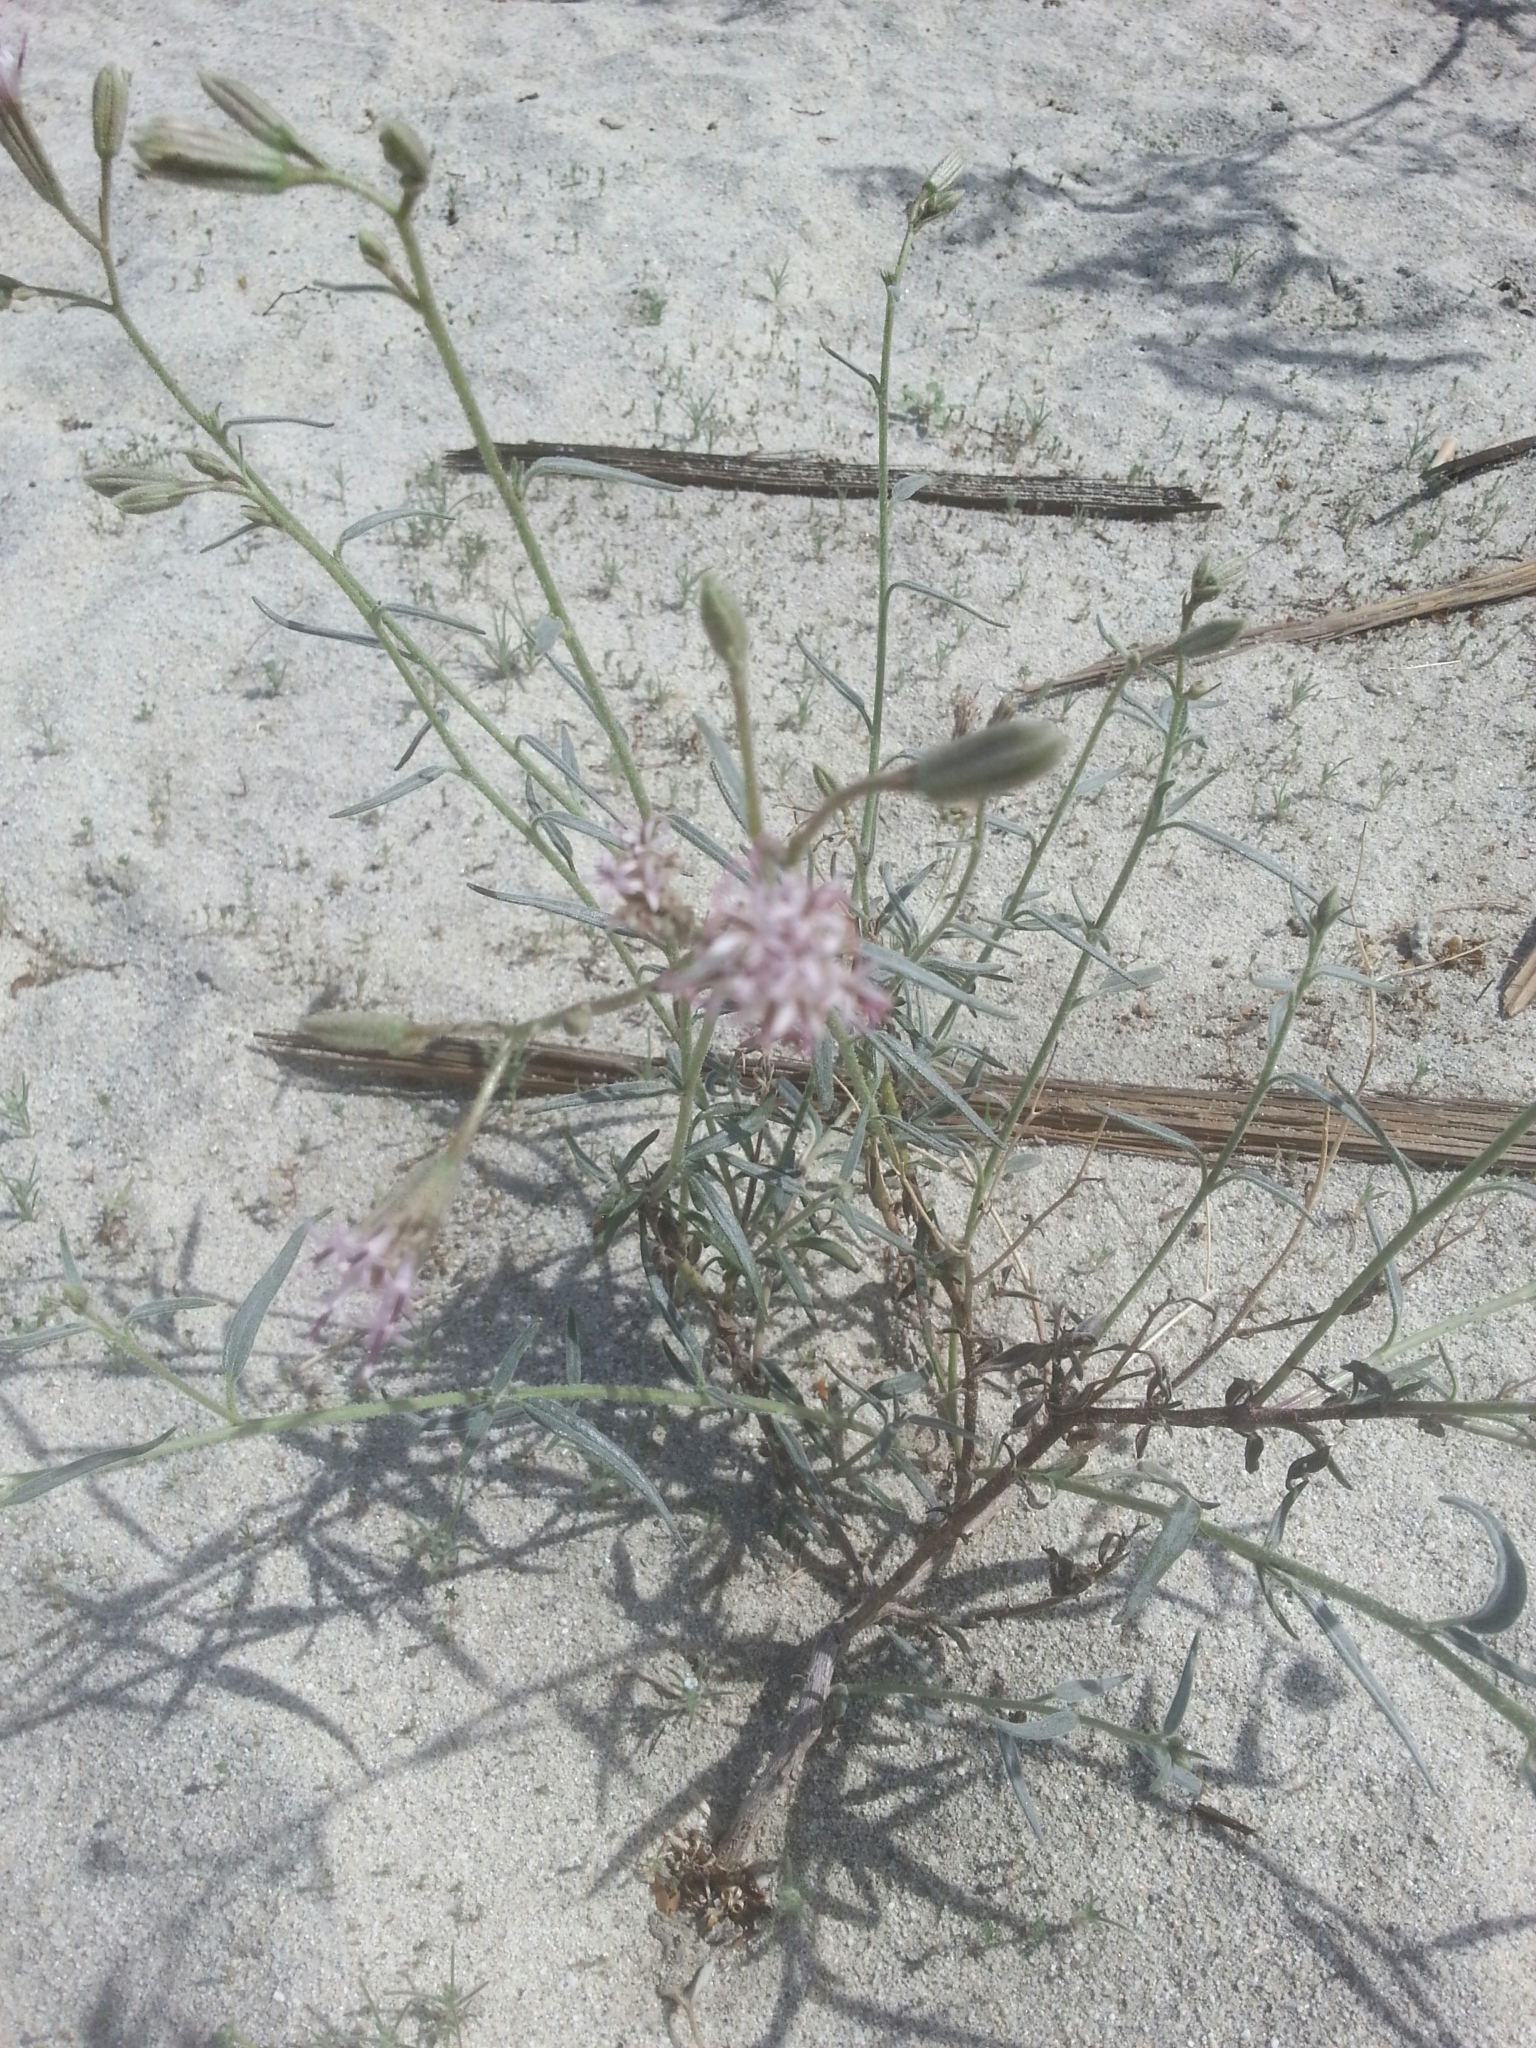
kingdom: Plantae
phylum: Tracheophyta
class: Magnoliopsida
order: Asterales
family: Asteraceae
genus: Palafoxia
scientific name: Palafoxia arida
